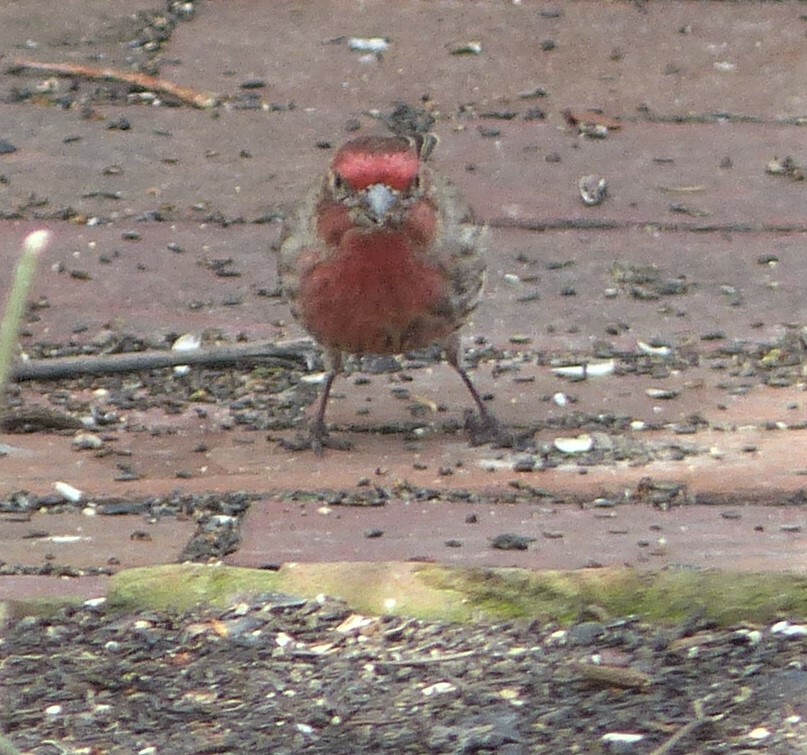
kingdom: Animalia
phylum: Chordata
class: Aves
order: Passeriformes
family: Fringillidae
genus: Haemorhous
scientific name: Haemorhous mexicanus
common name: House finch
